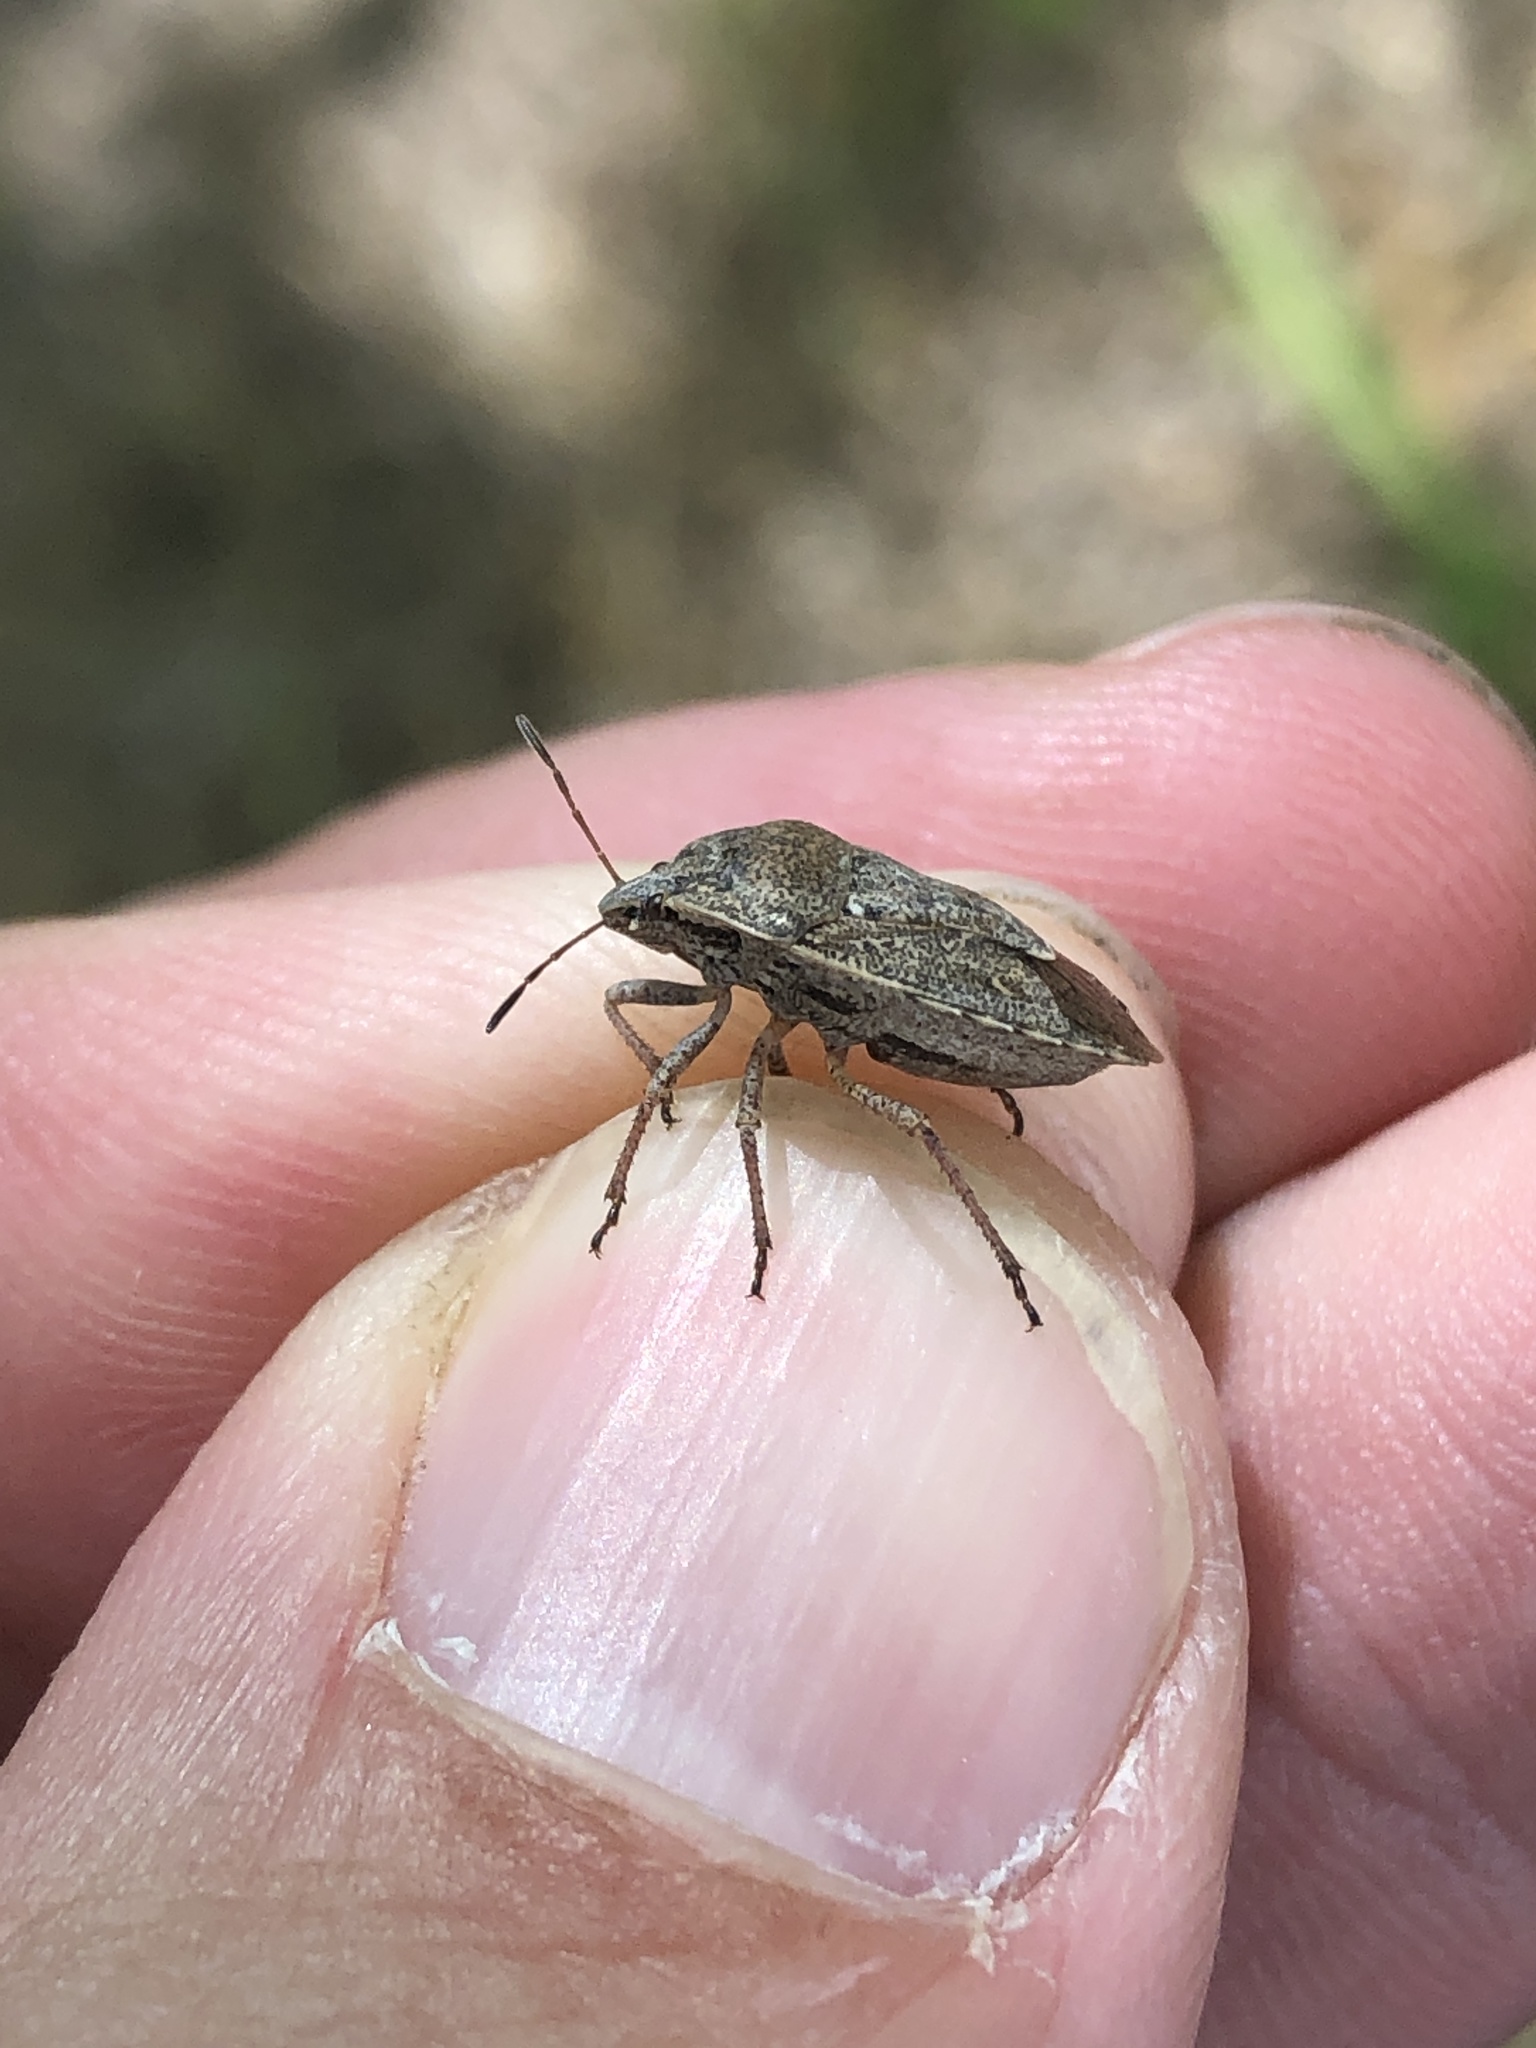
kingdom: Animalia
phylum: Arthropoda
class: Insecta
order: Hemiptera
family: Pentatomidae
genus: Hymenarcys
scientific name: Hymenarcys nervosa
